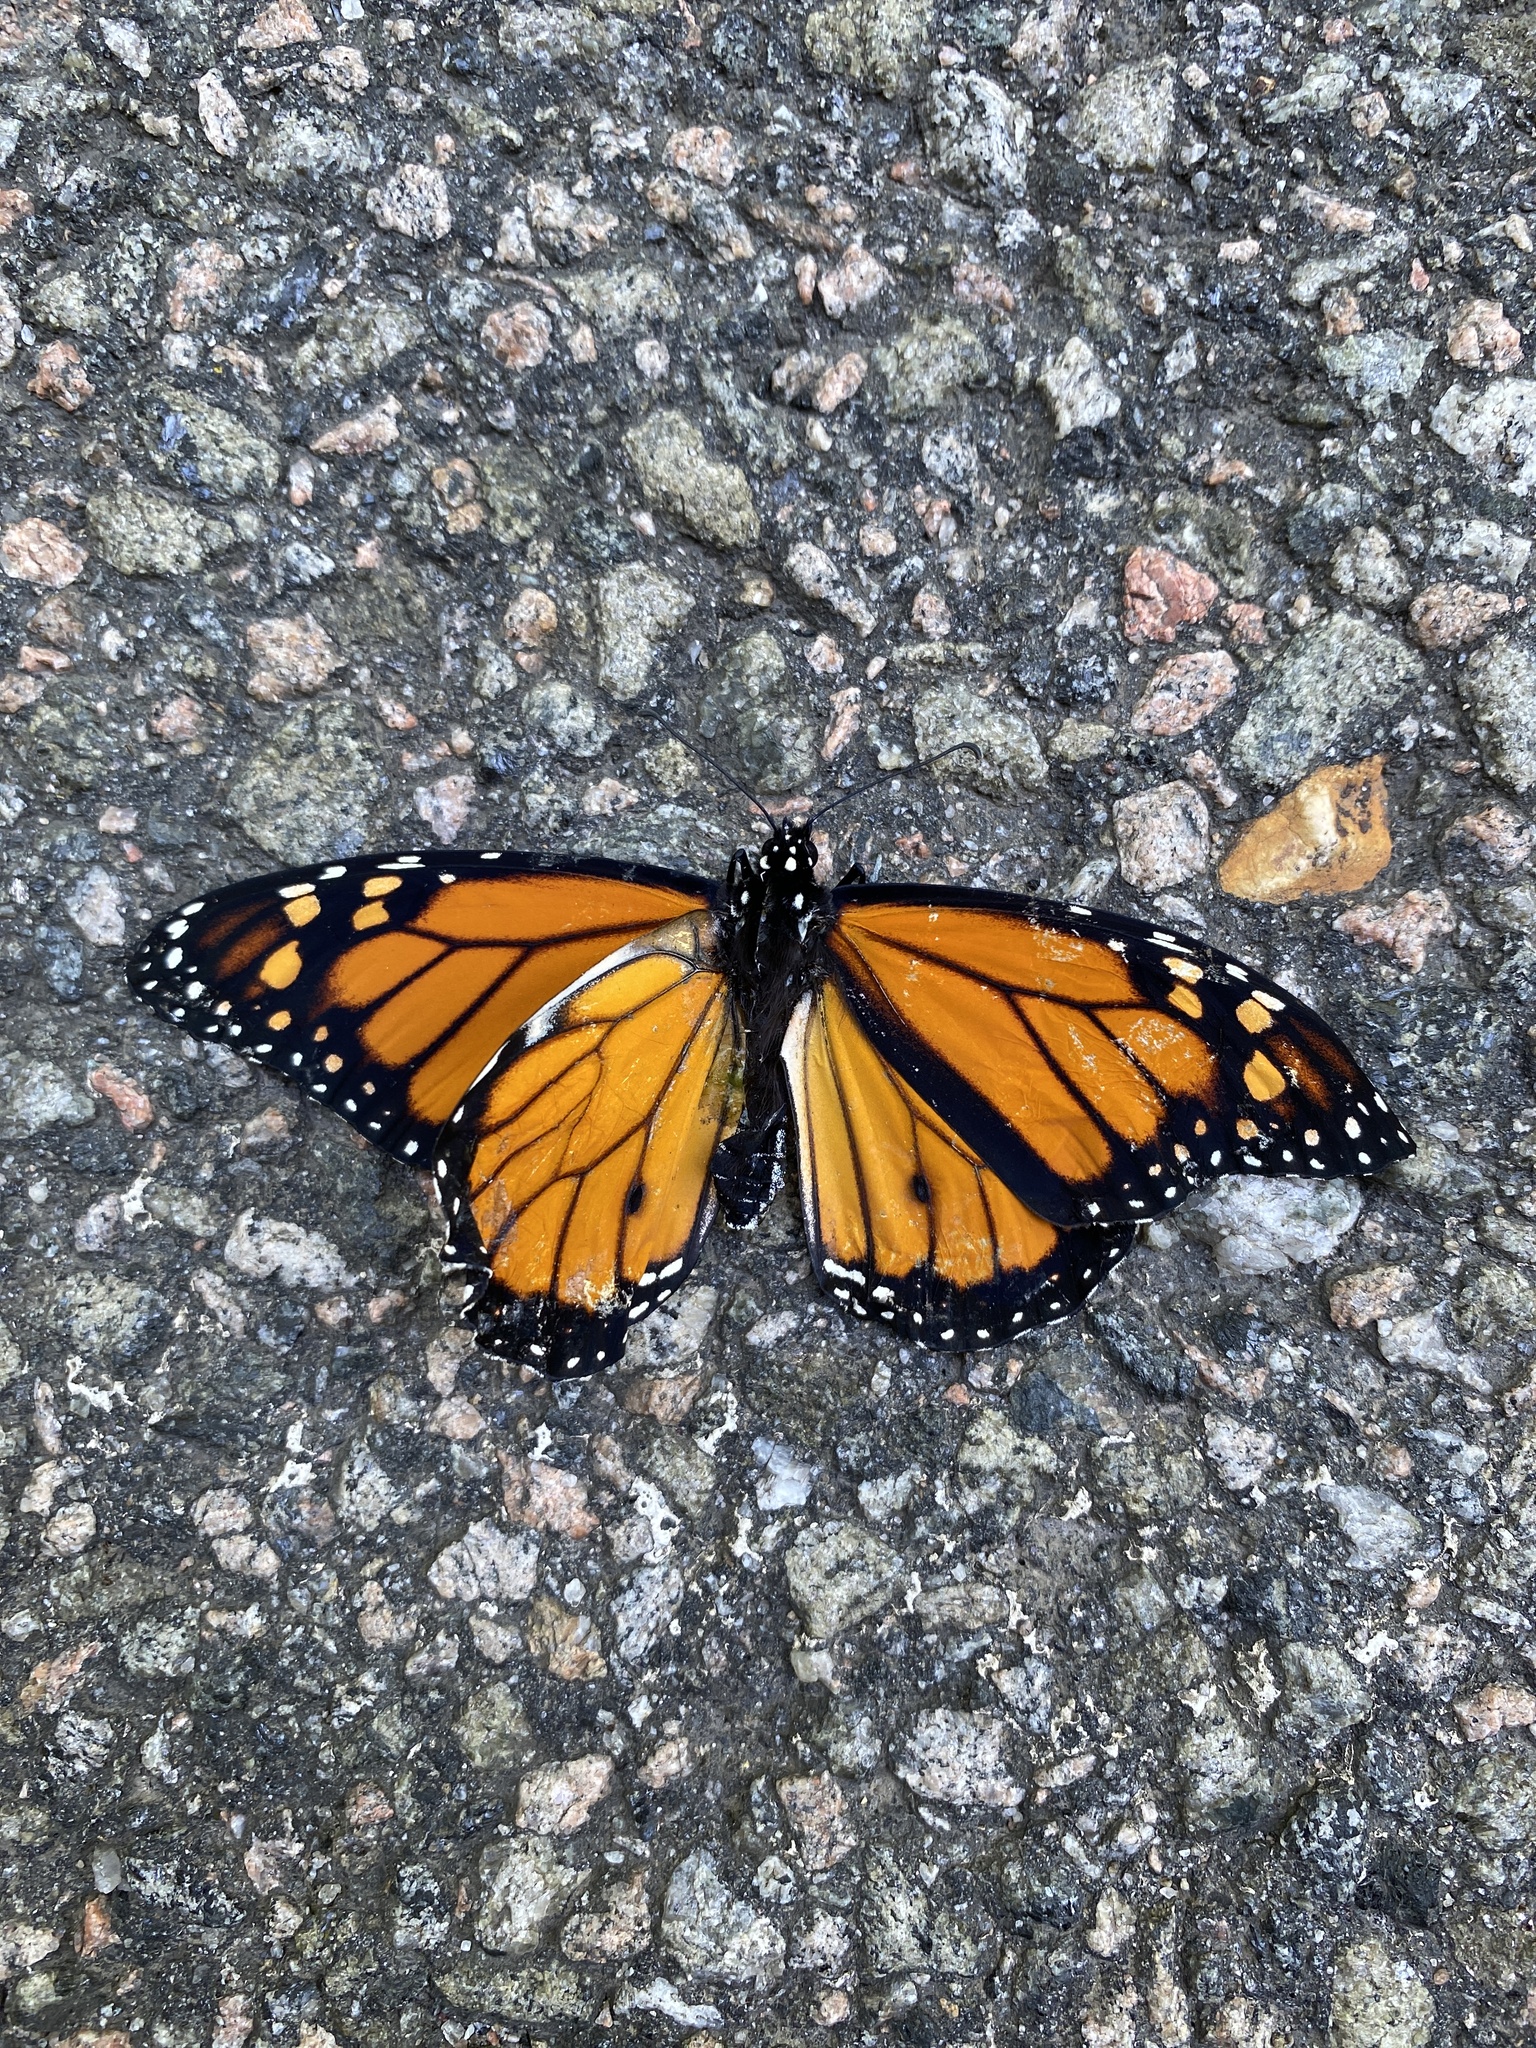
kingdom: Animalia
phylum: Arthropoda
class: Insecta
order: Lepidoptera
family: Nymphalidae
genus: Danaus
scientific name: Danaus plexippus
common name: Monarch
